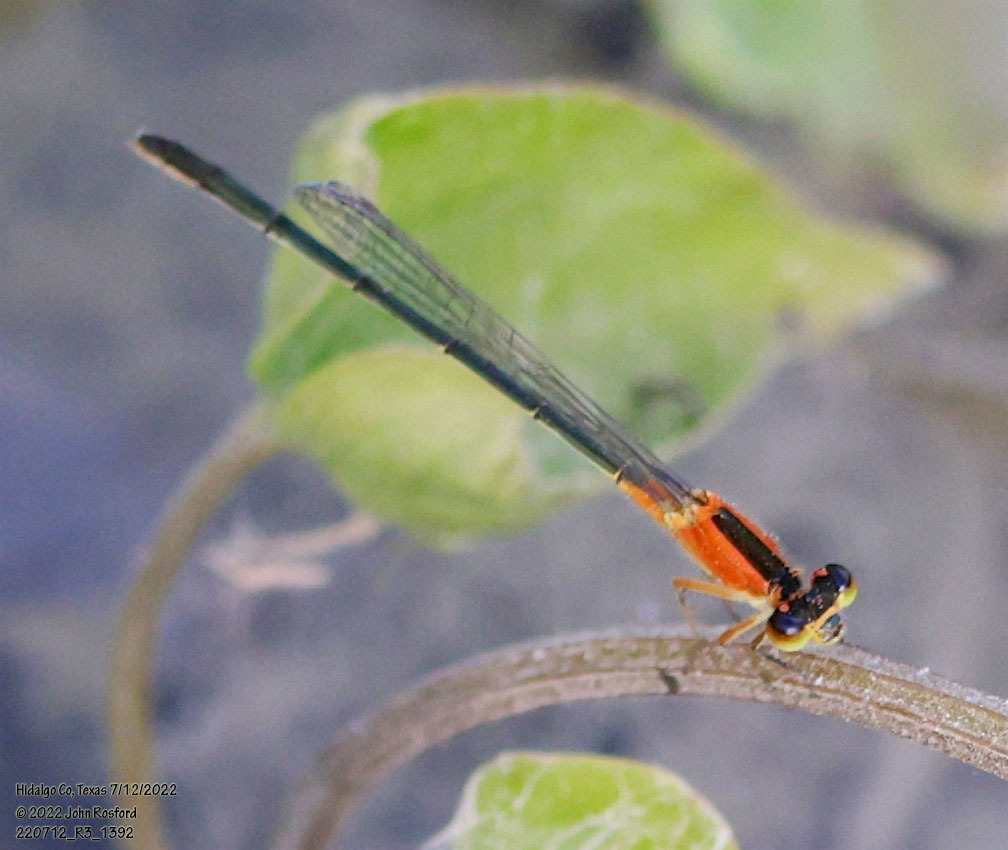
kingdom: Animalia
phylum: Arthropoda
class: Insecta
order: Odonata
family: Coenagrionidae
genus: Ischnura
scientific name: Ischnura ramburii
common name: Rambur's forktail
